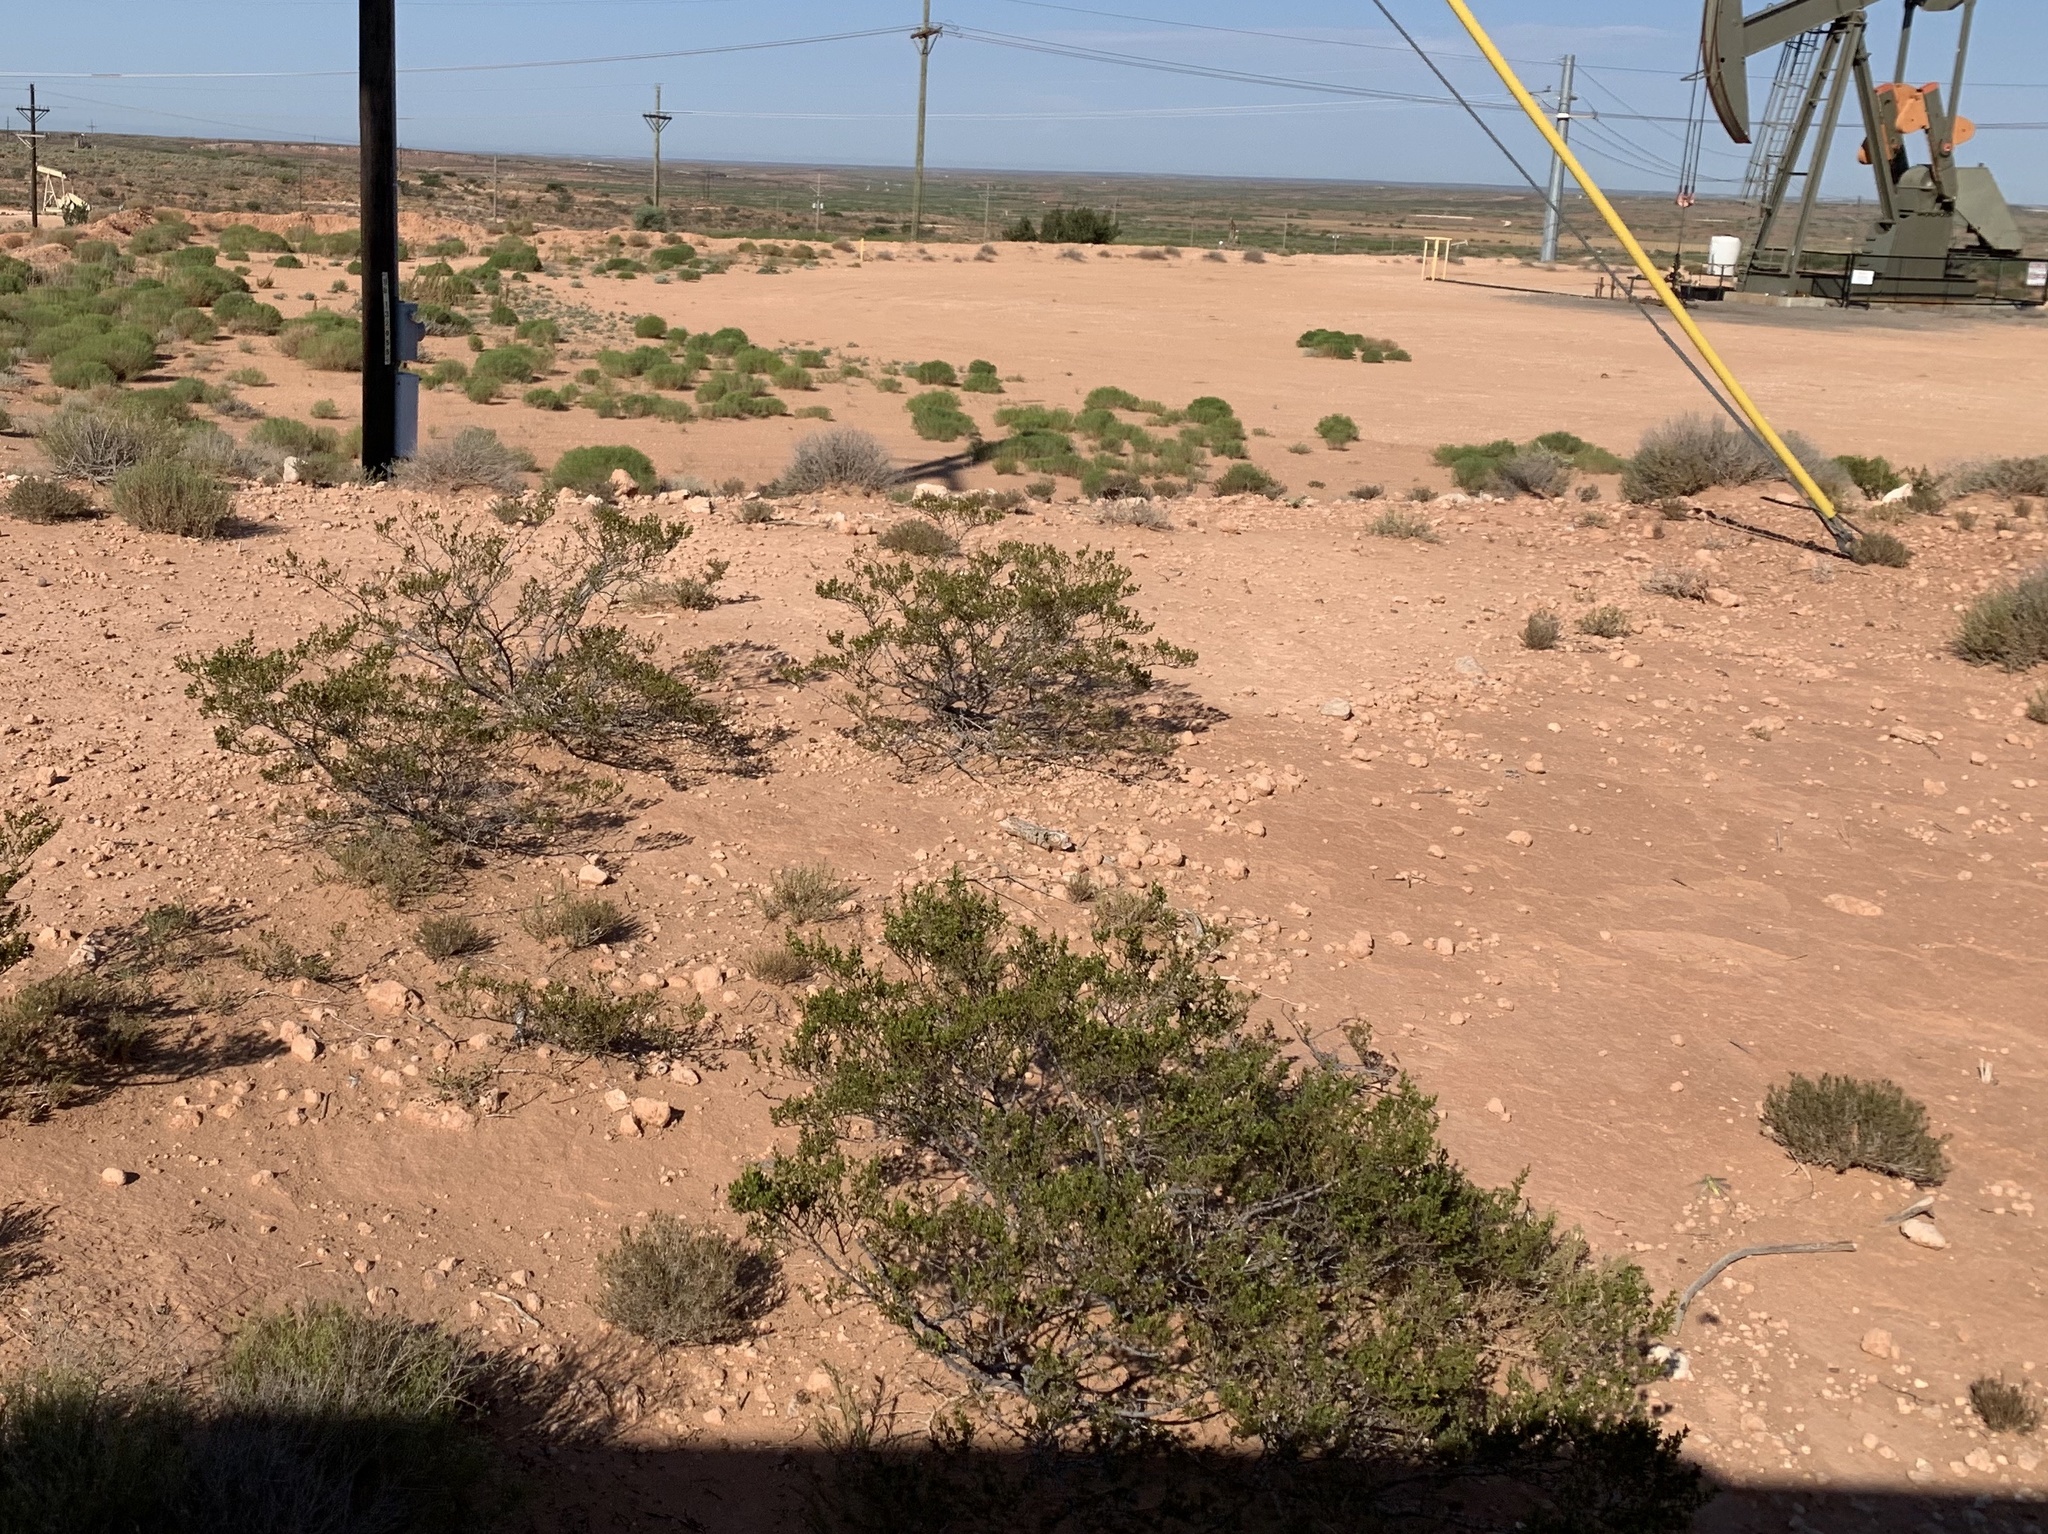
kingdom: Plantae
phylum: Tracheophyta
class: Magnoliopsida
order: Zygophyllales
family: Zygophyllaceae
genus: Larrea
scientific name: Larrea tridentata
